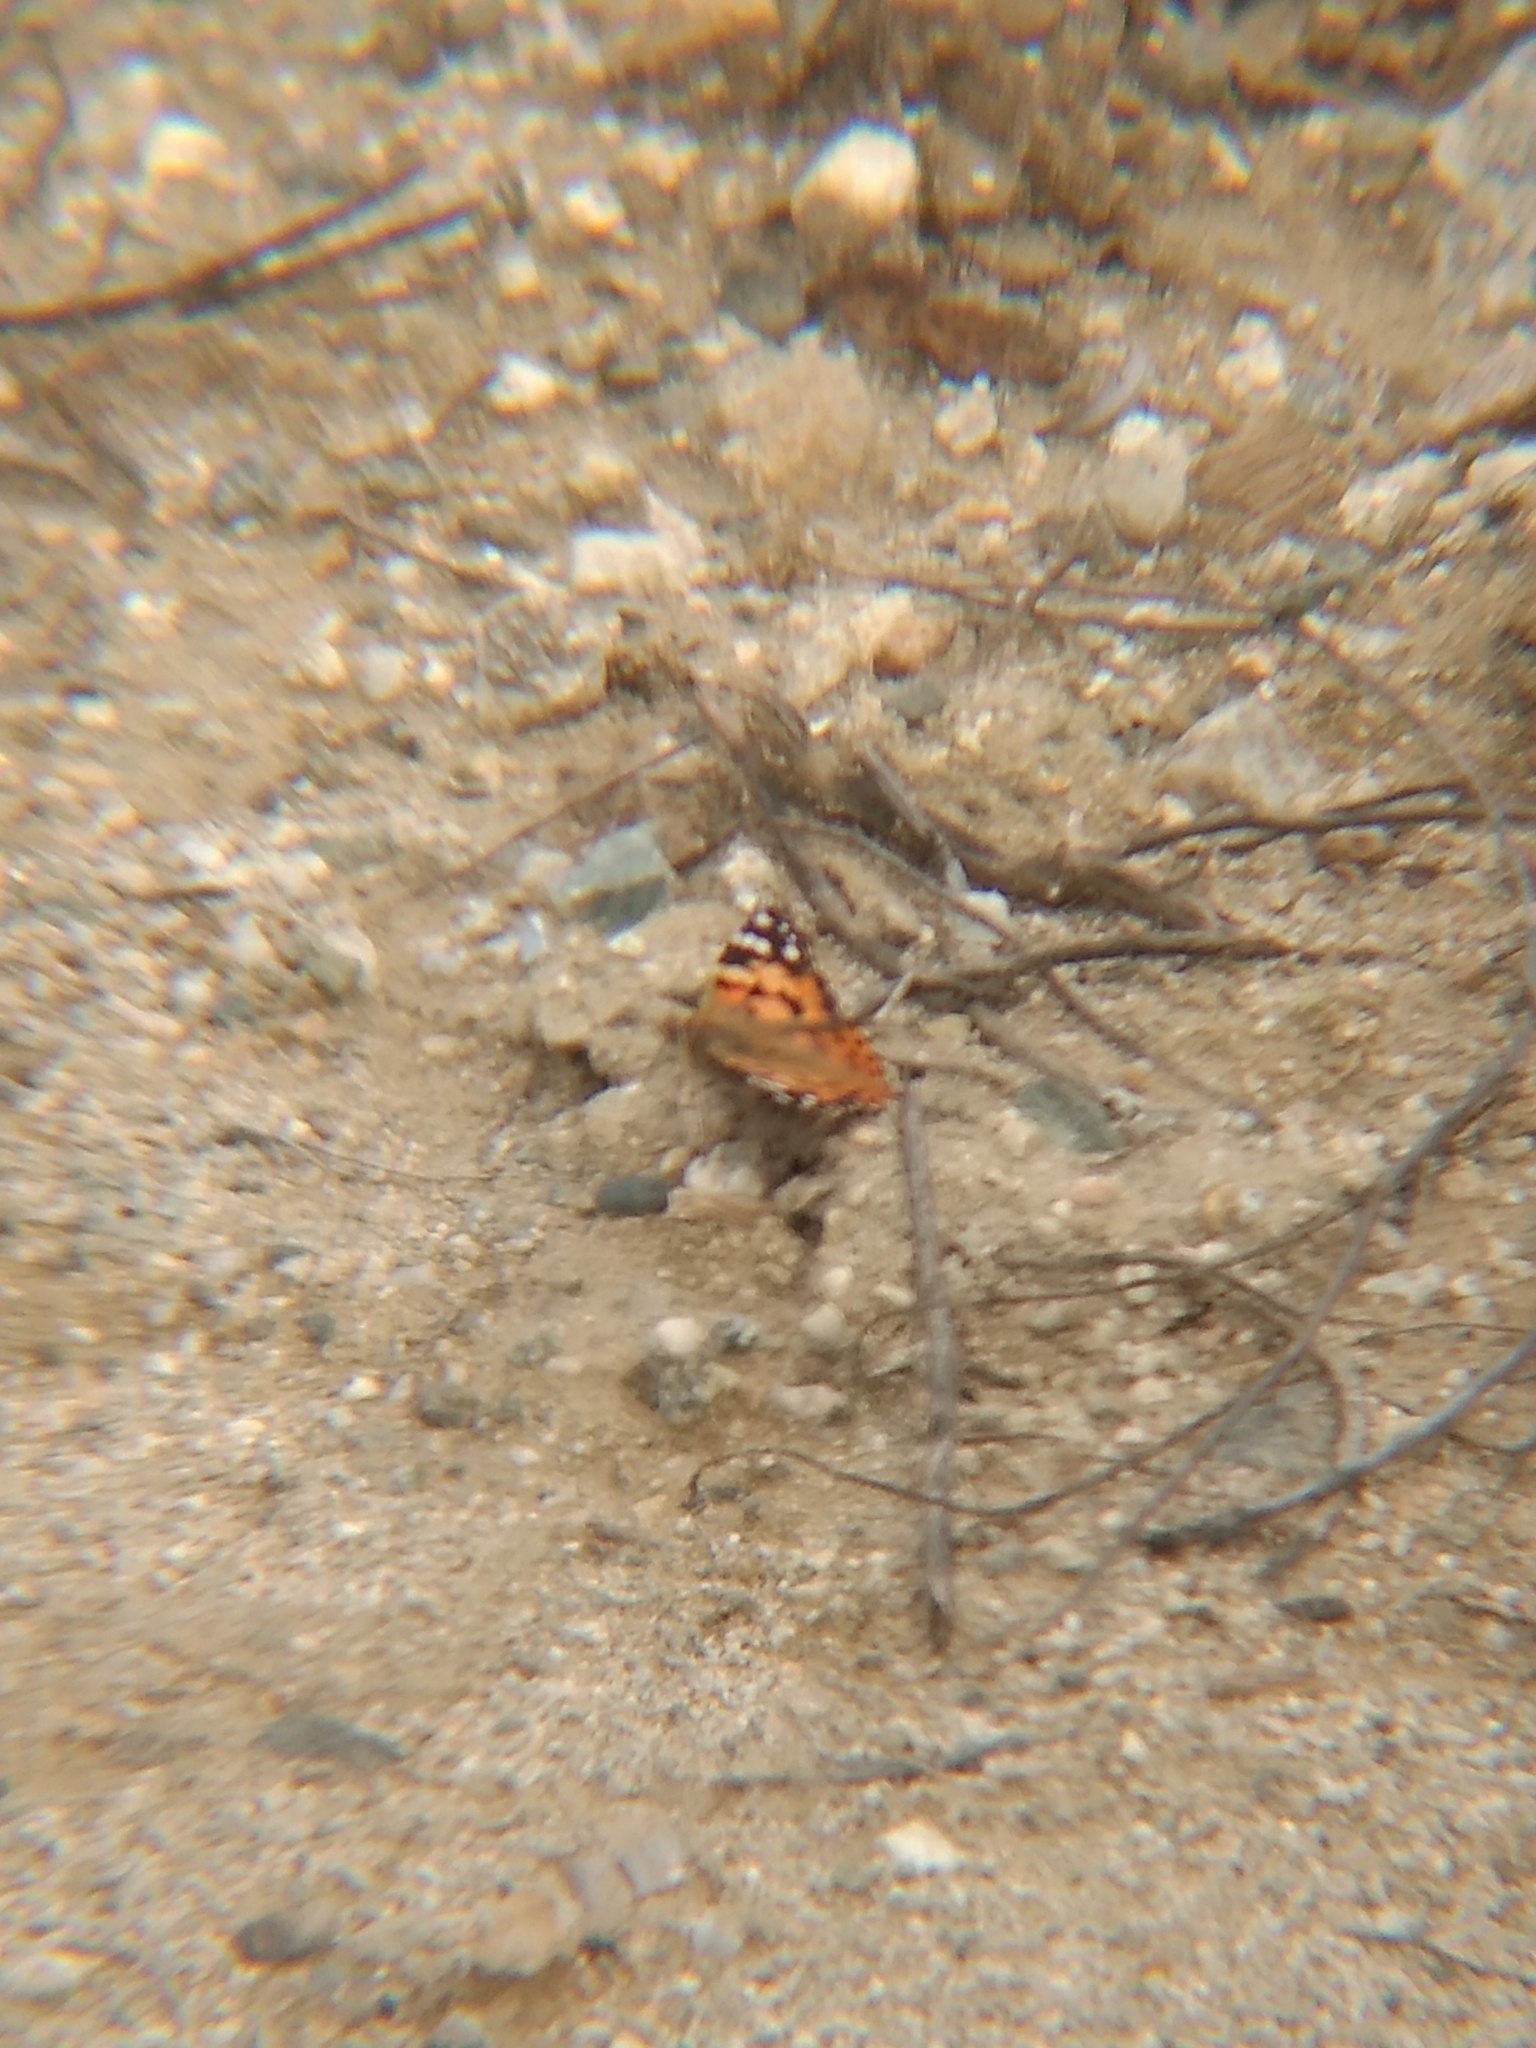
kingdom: Animalia
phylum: Arthropoda
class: Insecta
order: Lepidoptera
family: Nymphalidae
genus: Vanessa
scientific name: Vanessa cardui
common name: Painted lady
